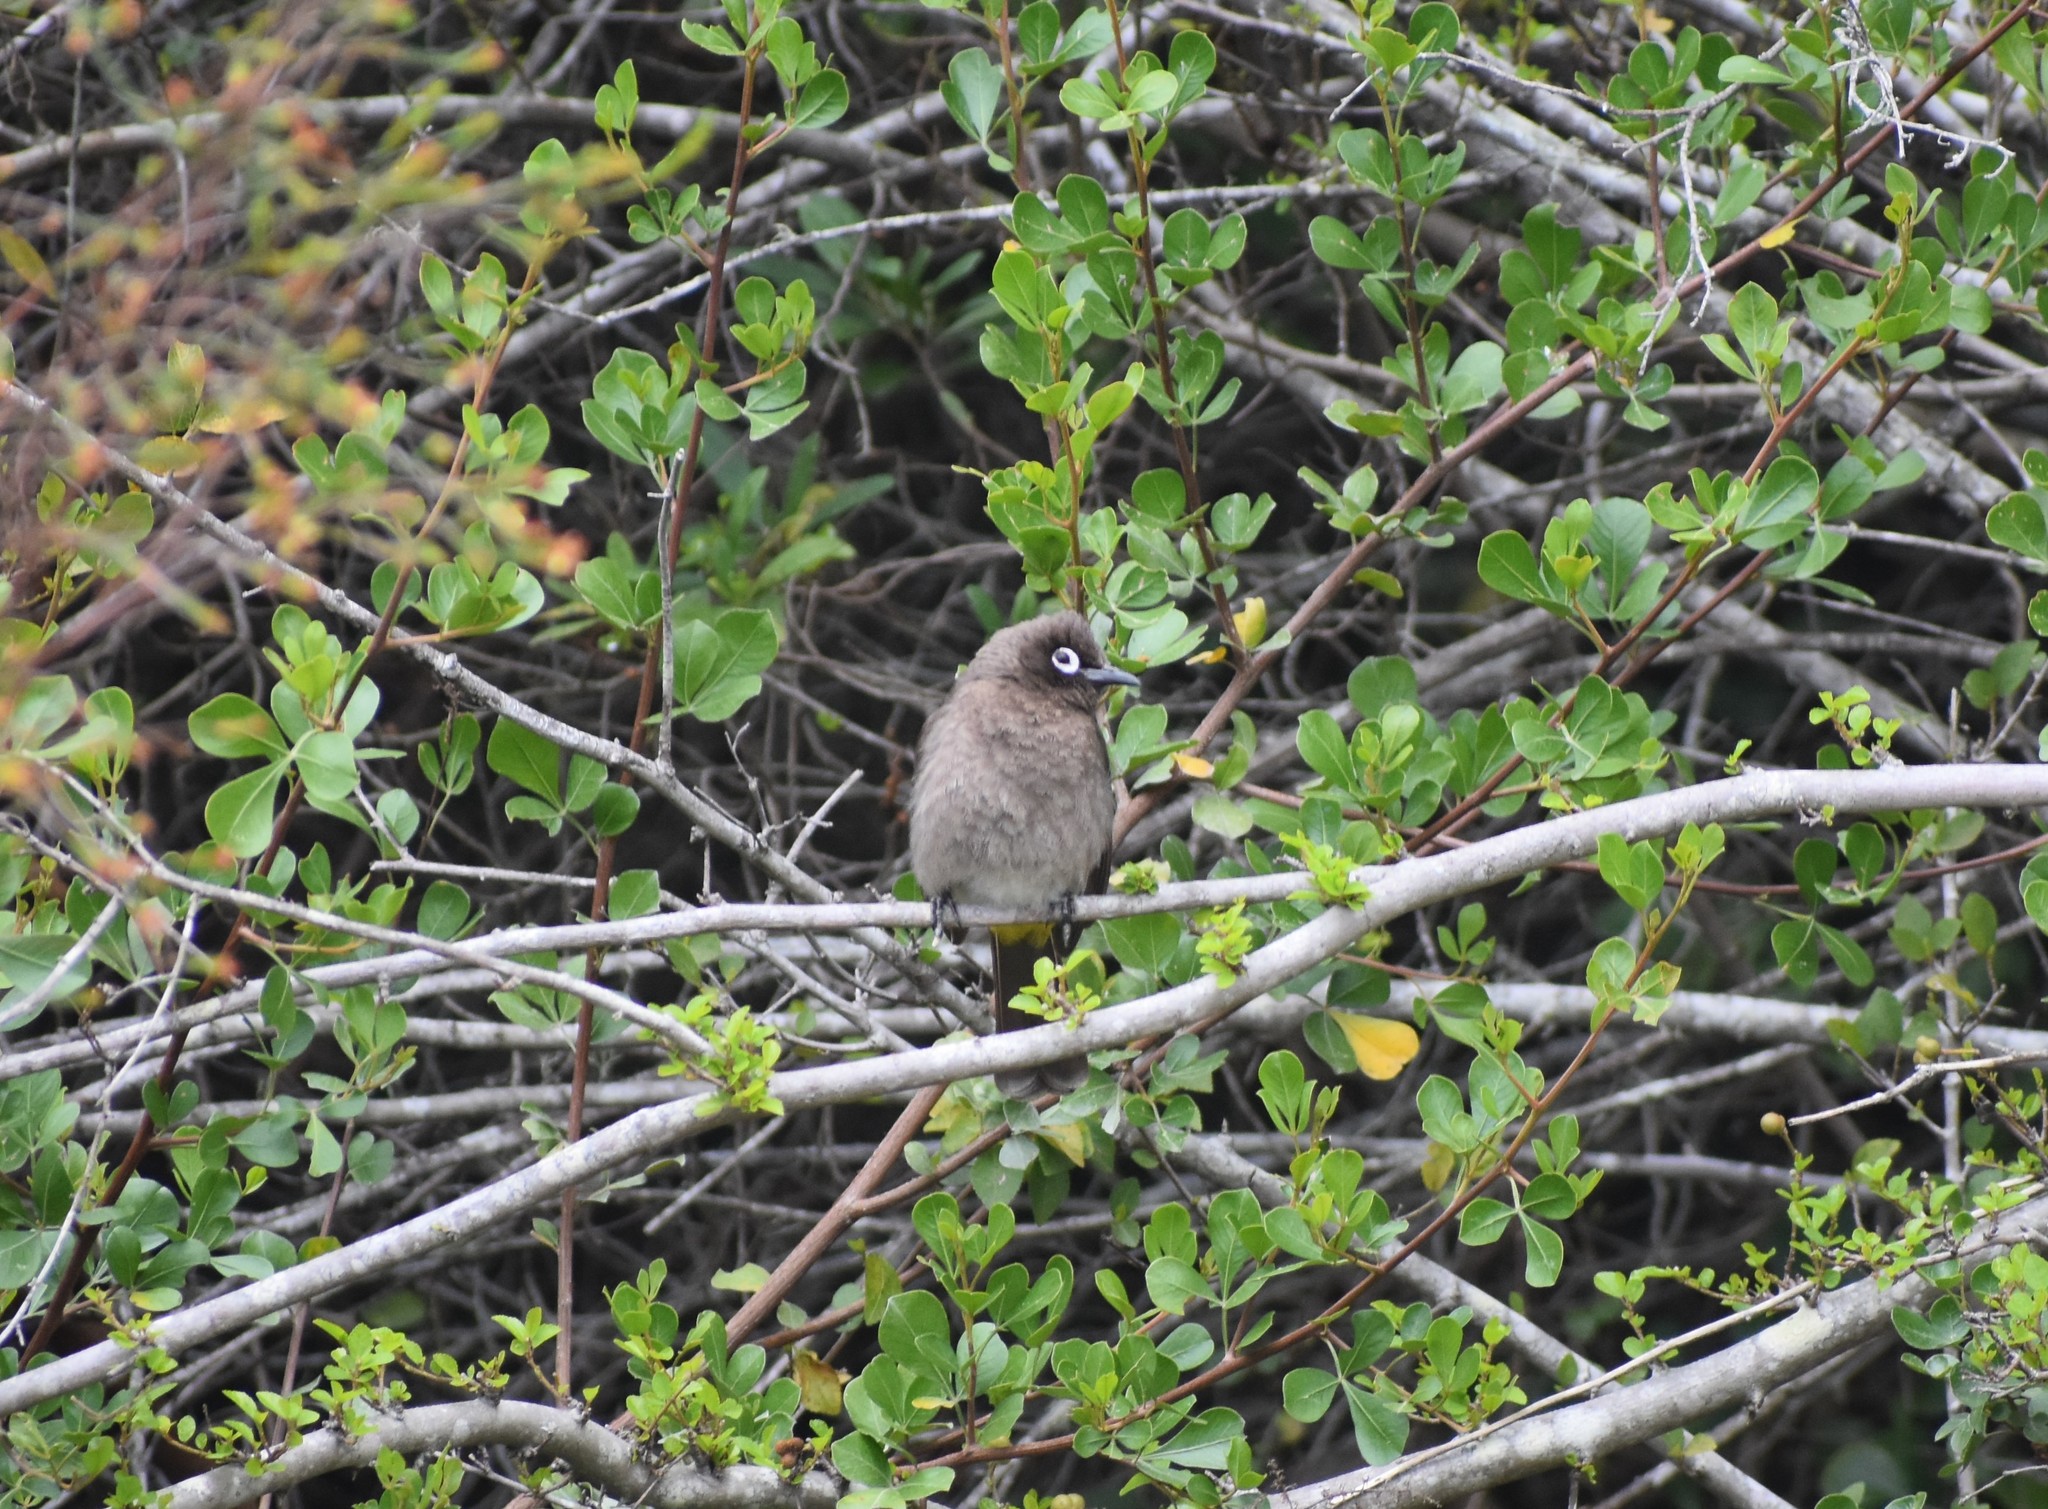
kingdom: Animalia
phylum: Chordata
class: Aves
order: Passeriformes
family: Pycnonotidae
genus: Pycnonotus
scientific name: Pycnonotus capensis
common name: Cape bulbul
